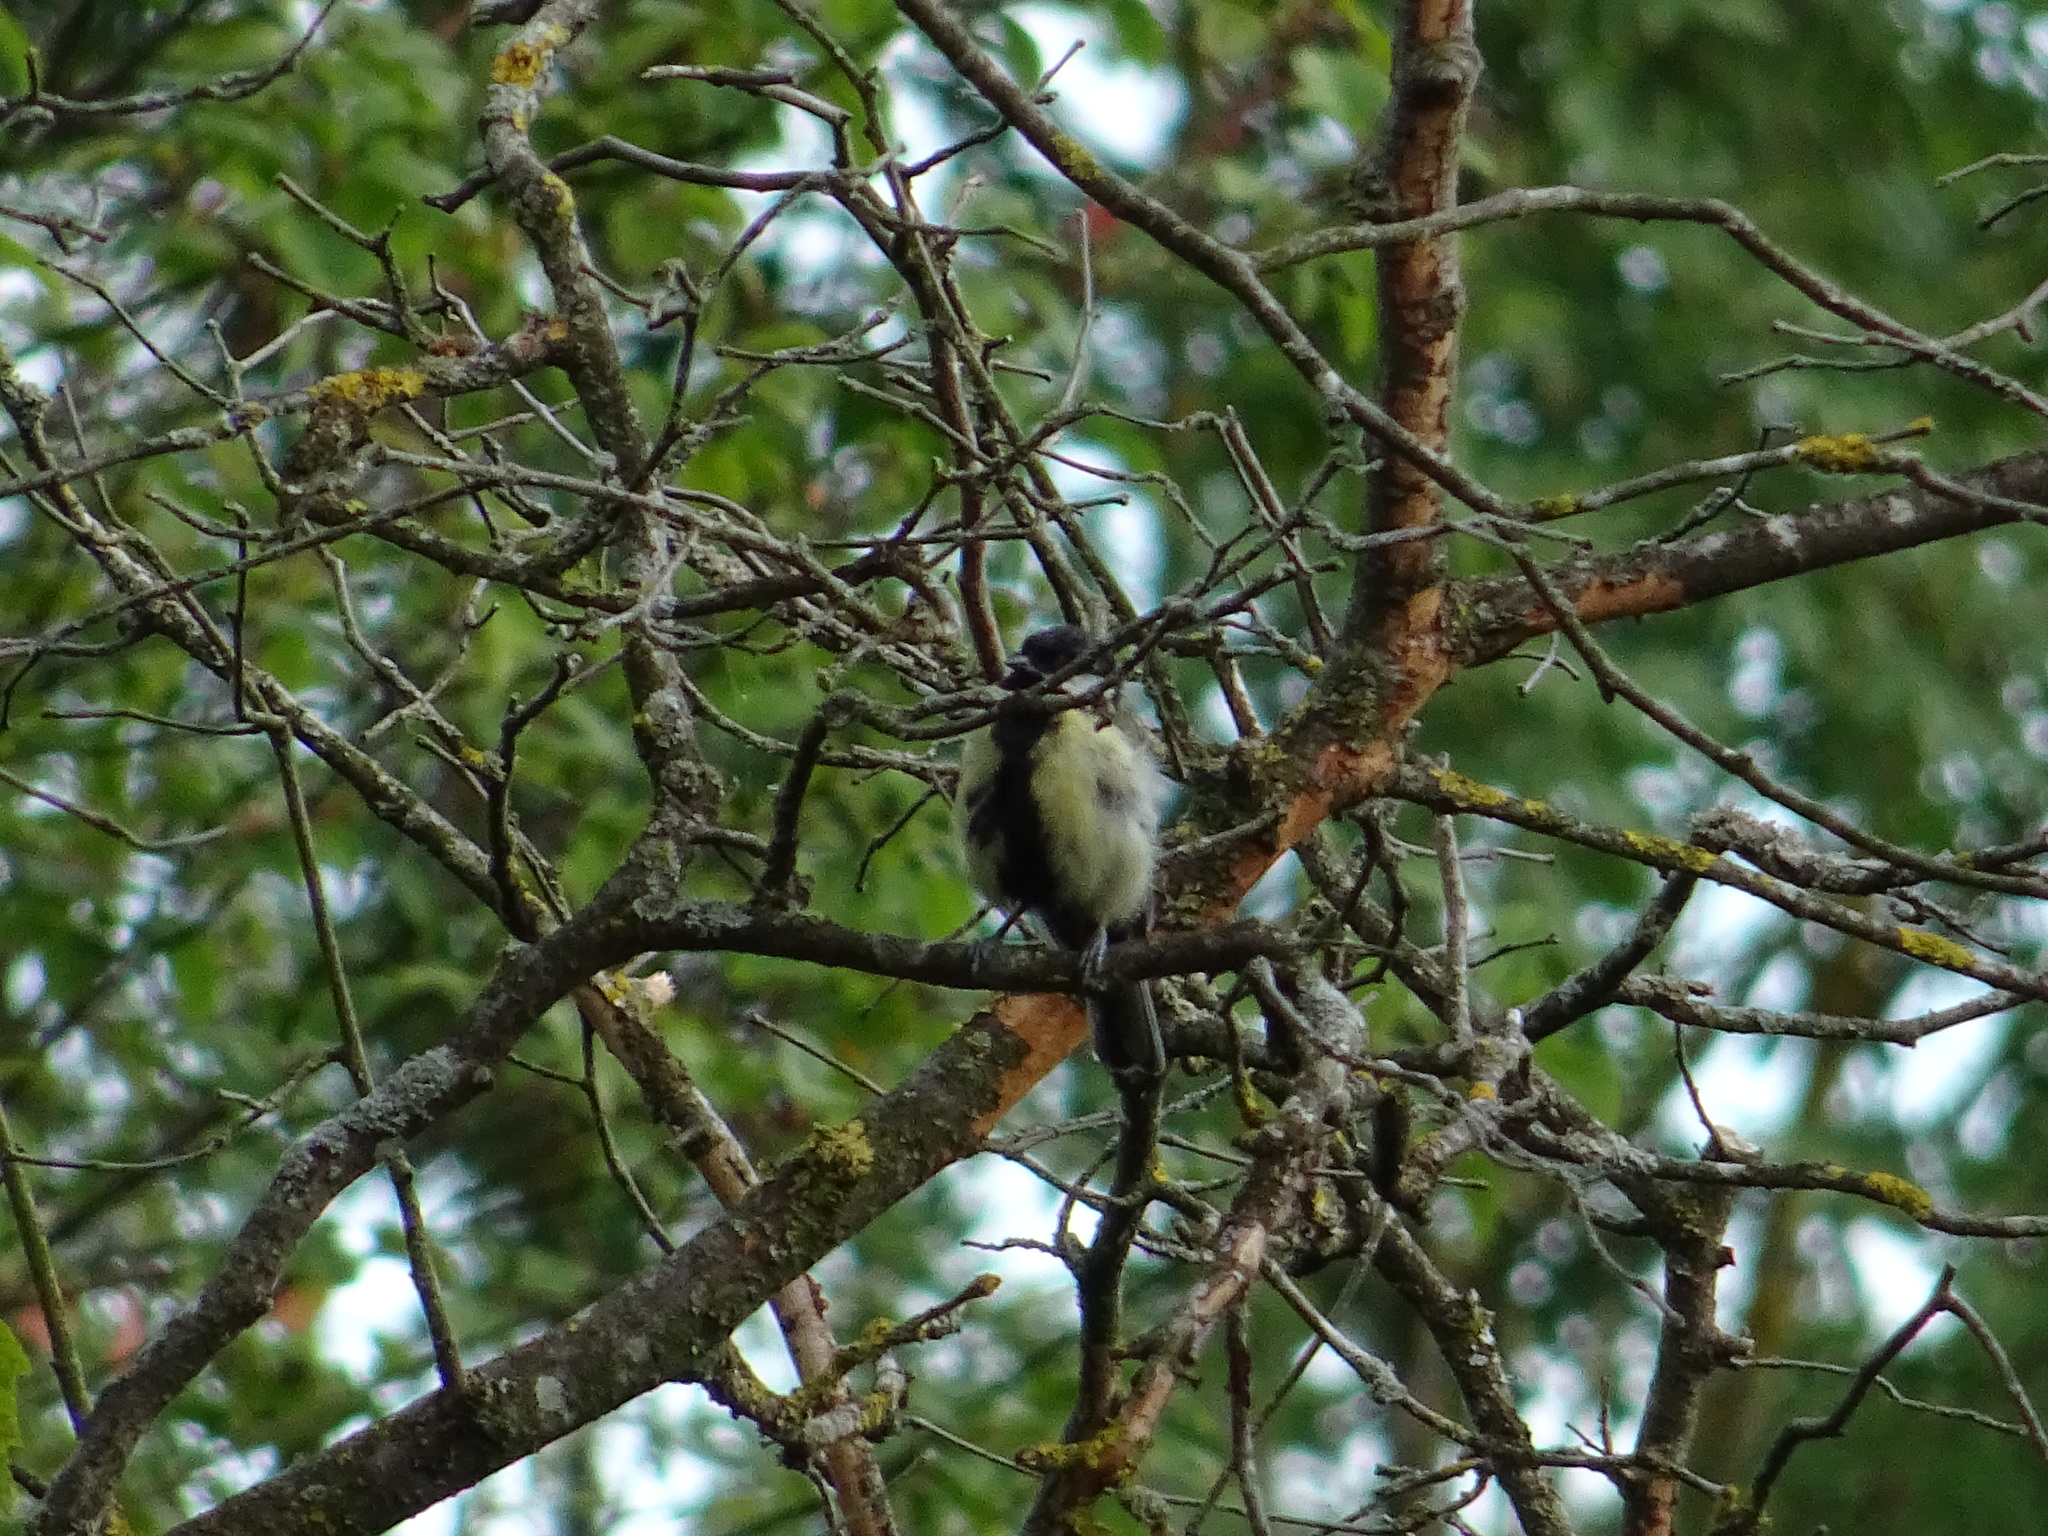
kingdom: Animalia
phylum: Chordata
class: Aves
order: Passeriformes
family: Paridae
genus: Parus
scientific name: Parus major
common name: Great tit
